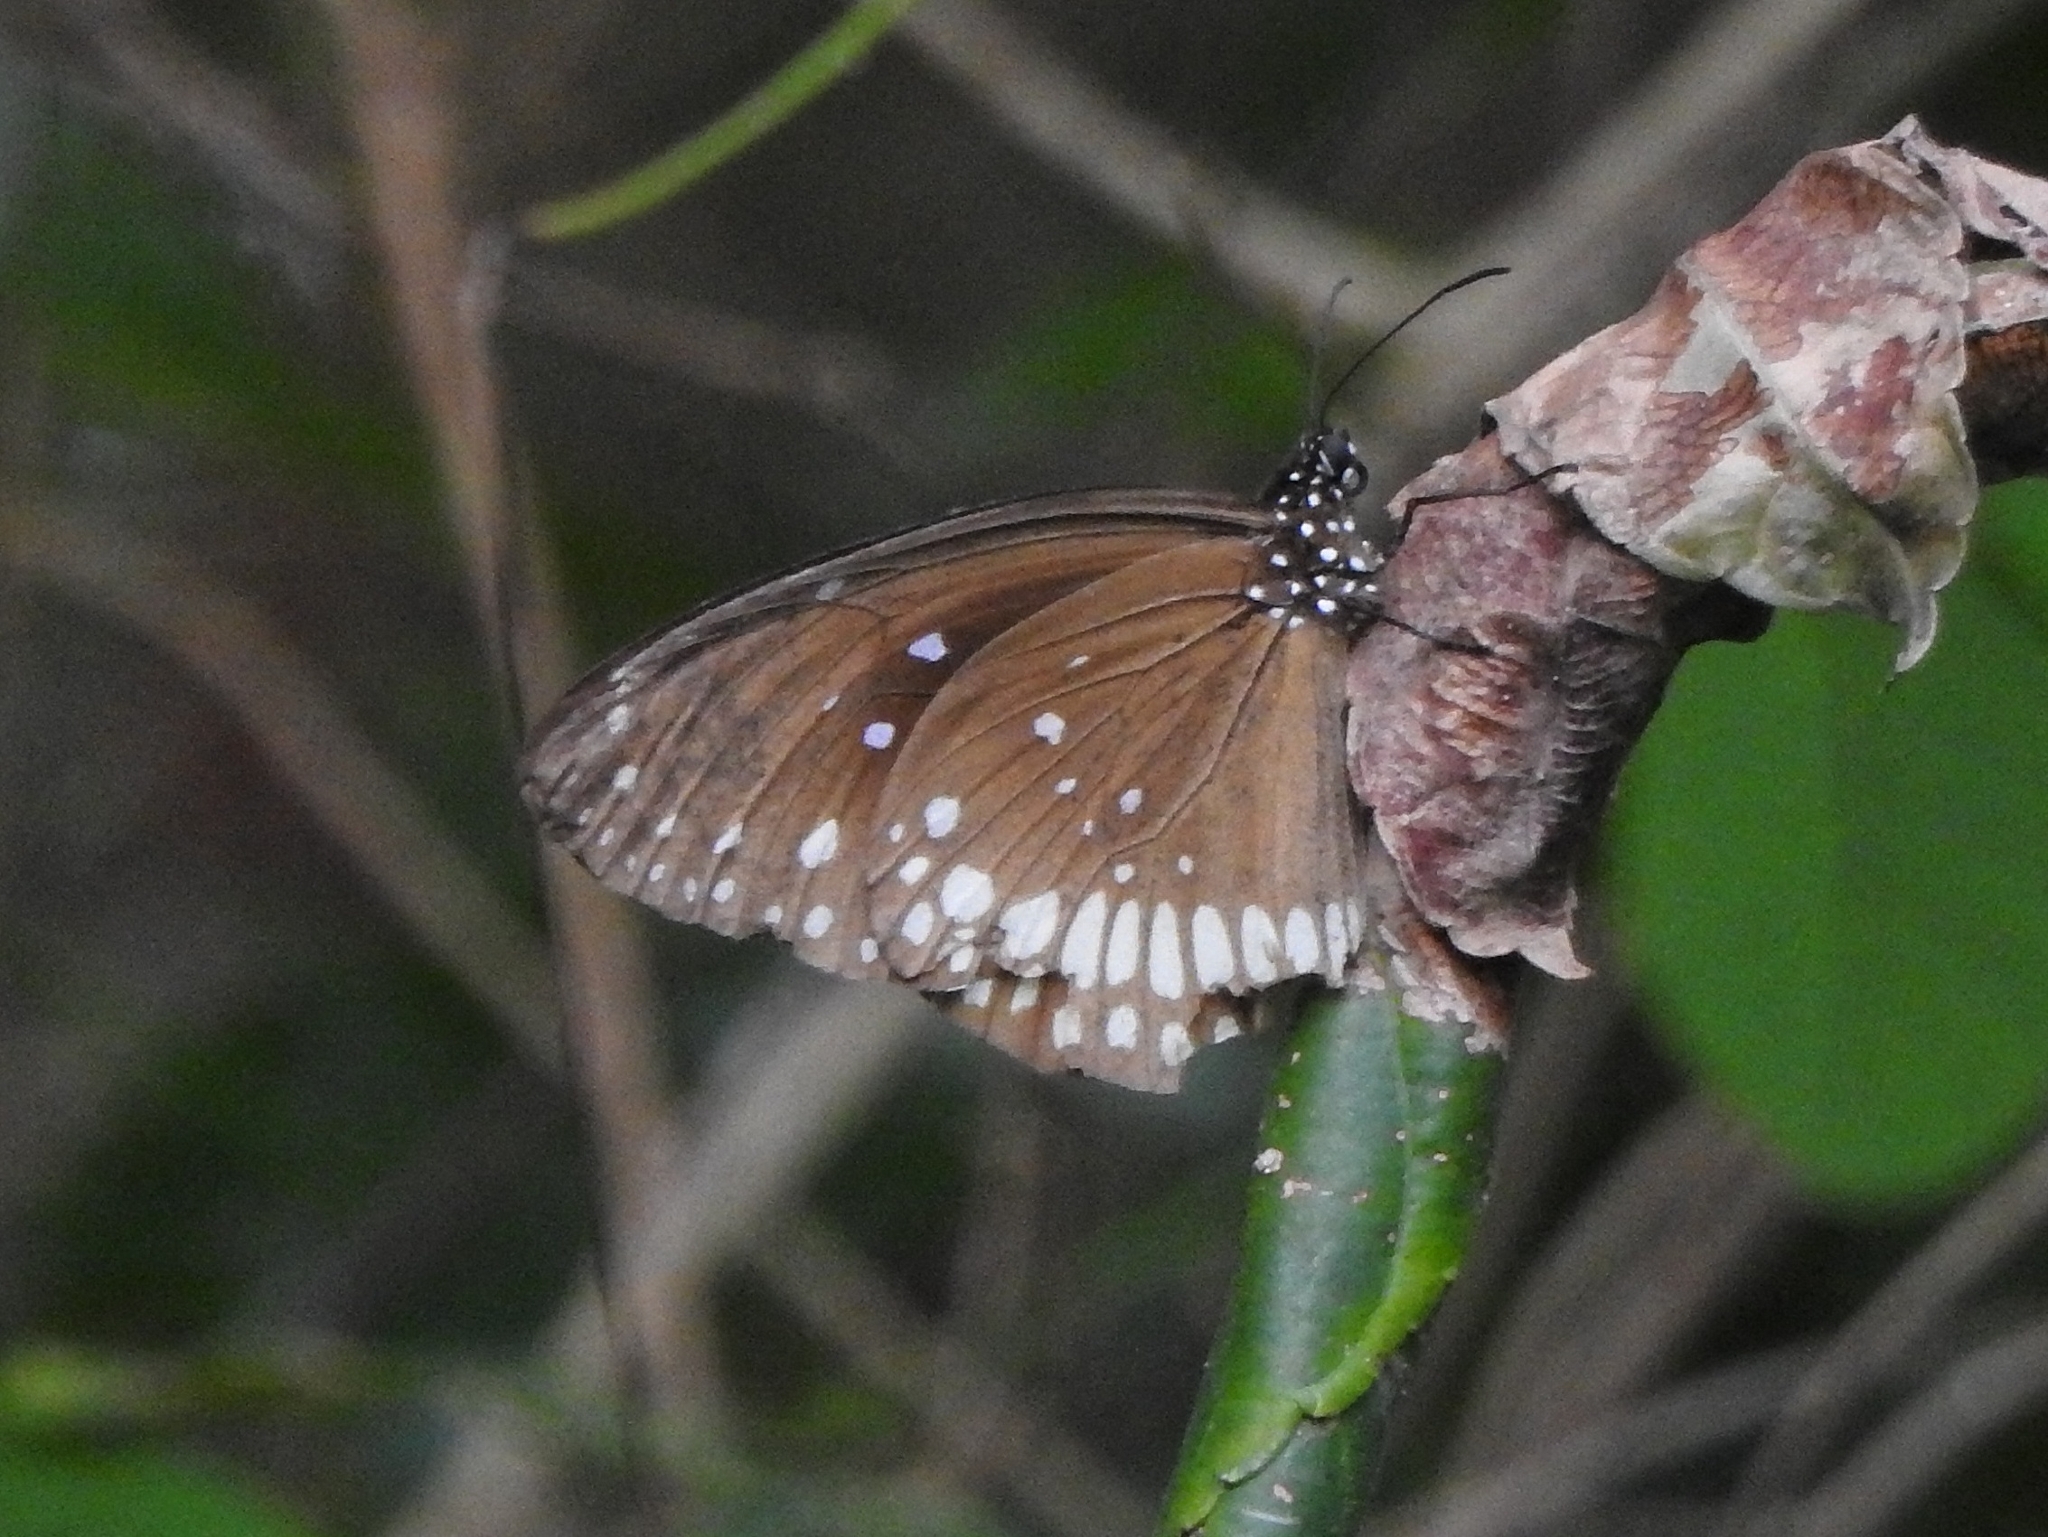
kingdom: Animalia
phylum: Arthropoda
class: Insecta
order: Lepidoptera
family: Nymphalidae
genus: Euploea
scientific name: Euploea core
